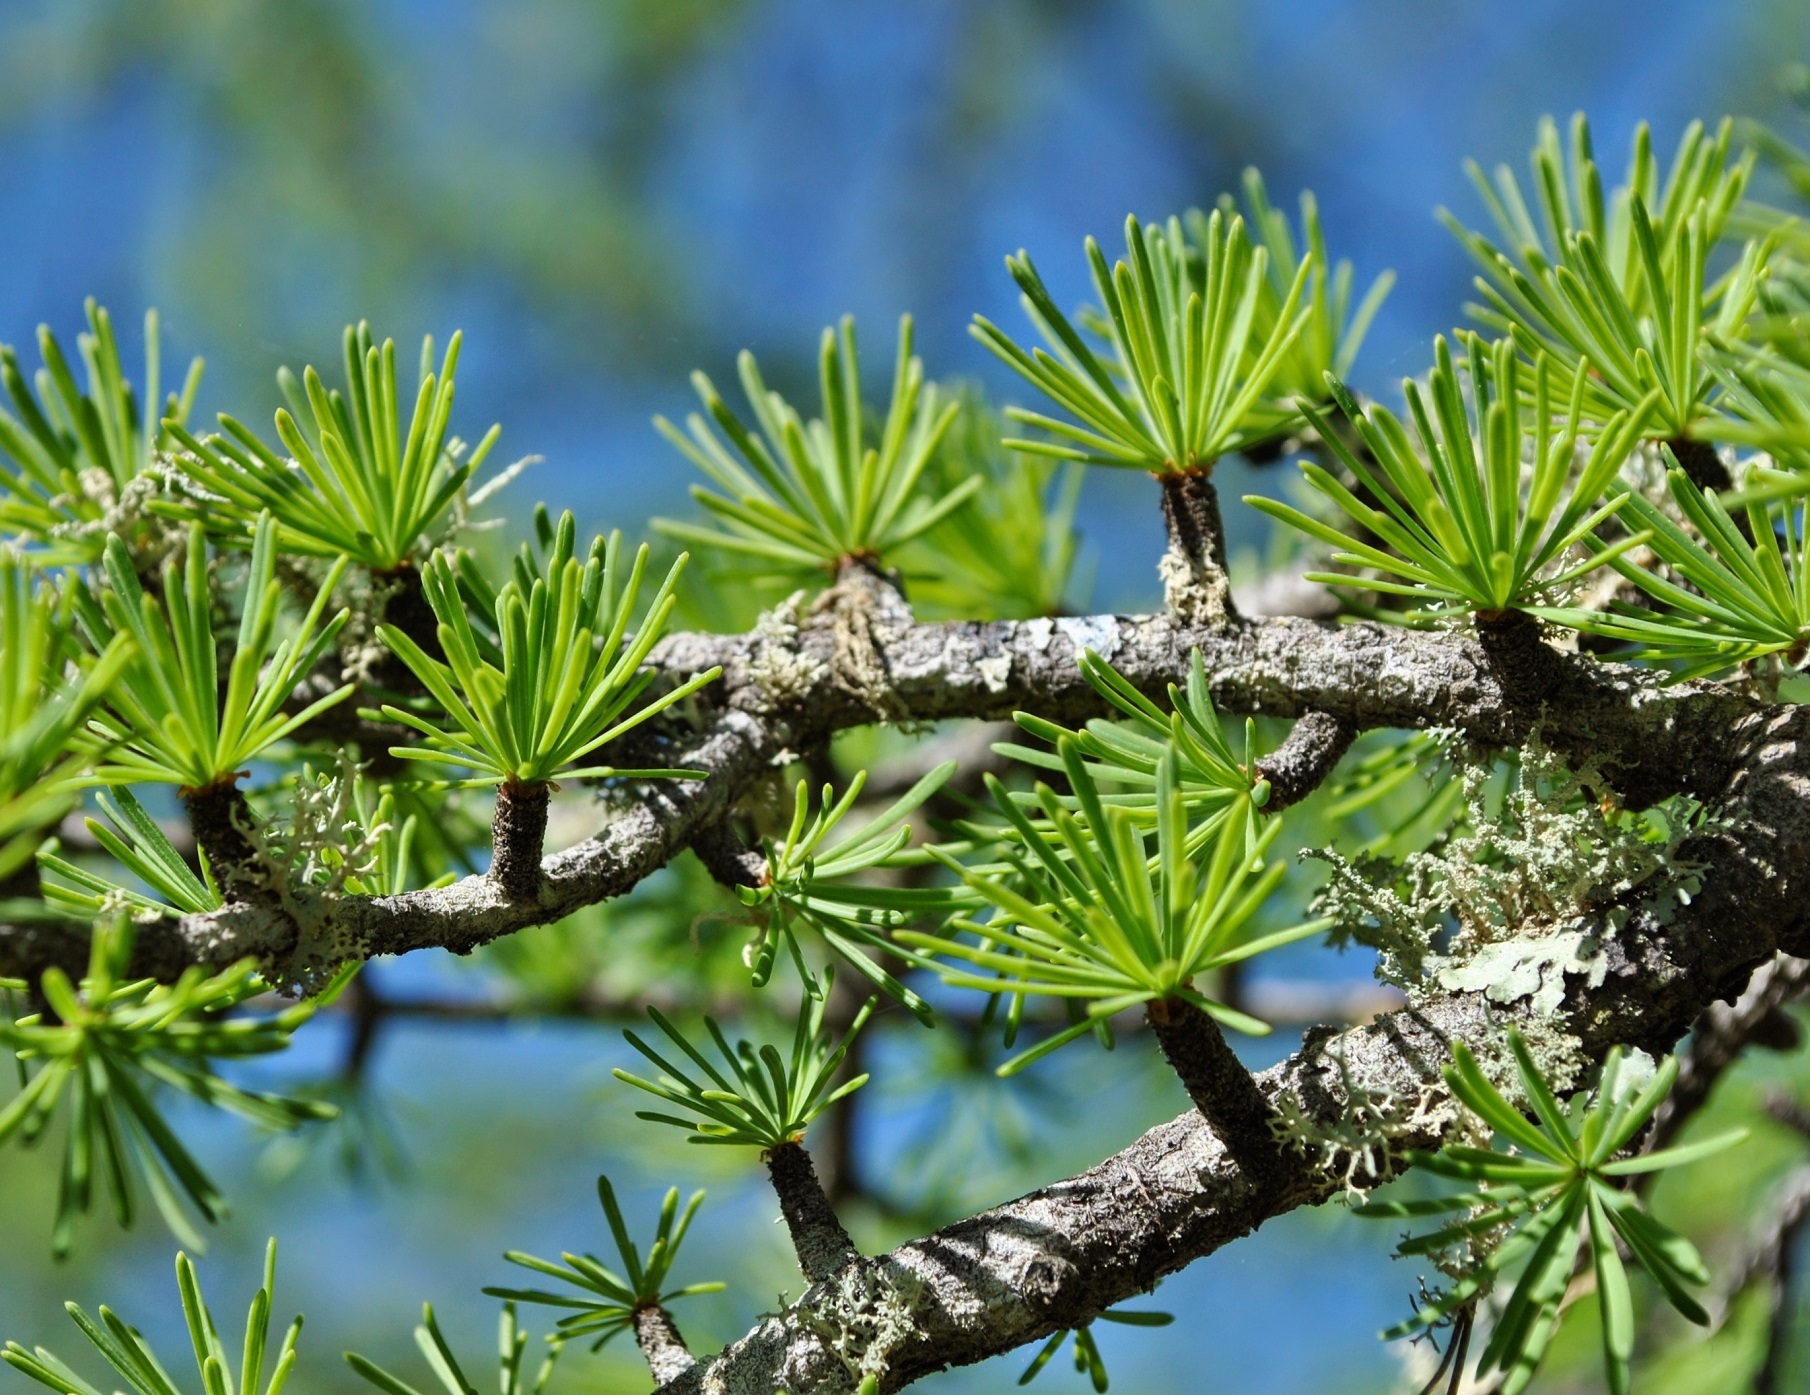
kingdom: Plantae
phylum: Tracheophyta
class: Pinopsida
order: Pinales
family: Pinaceae
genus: Larix
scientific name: Larix laricina
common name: American larch
